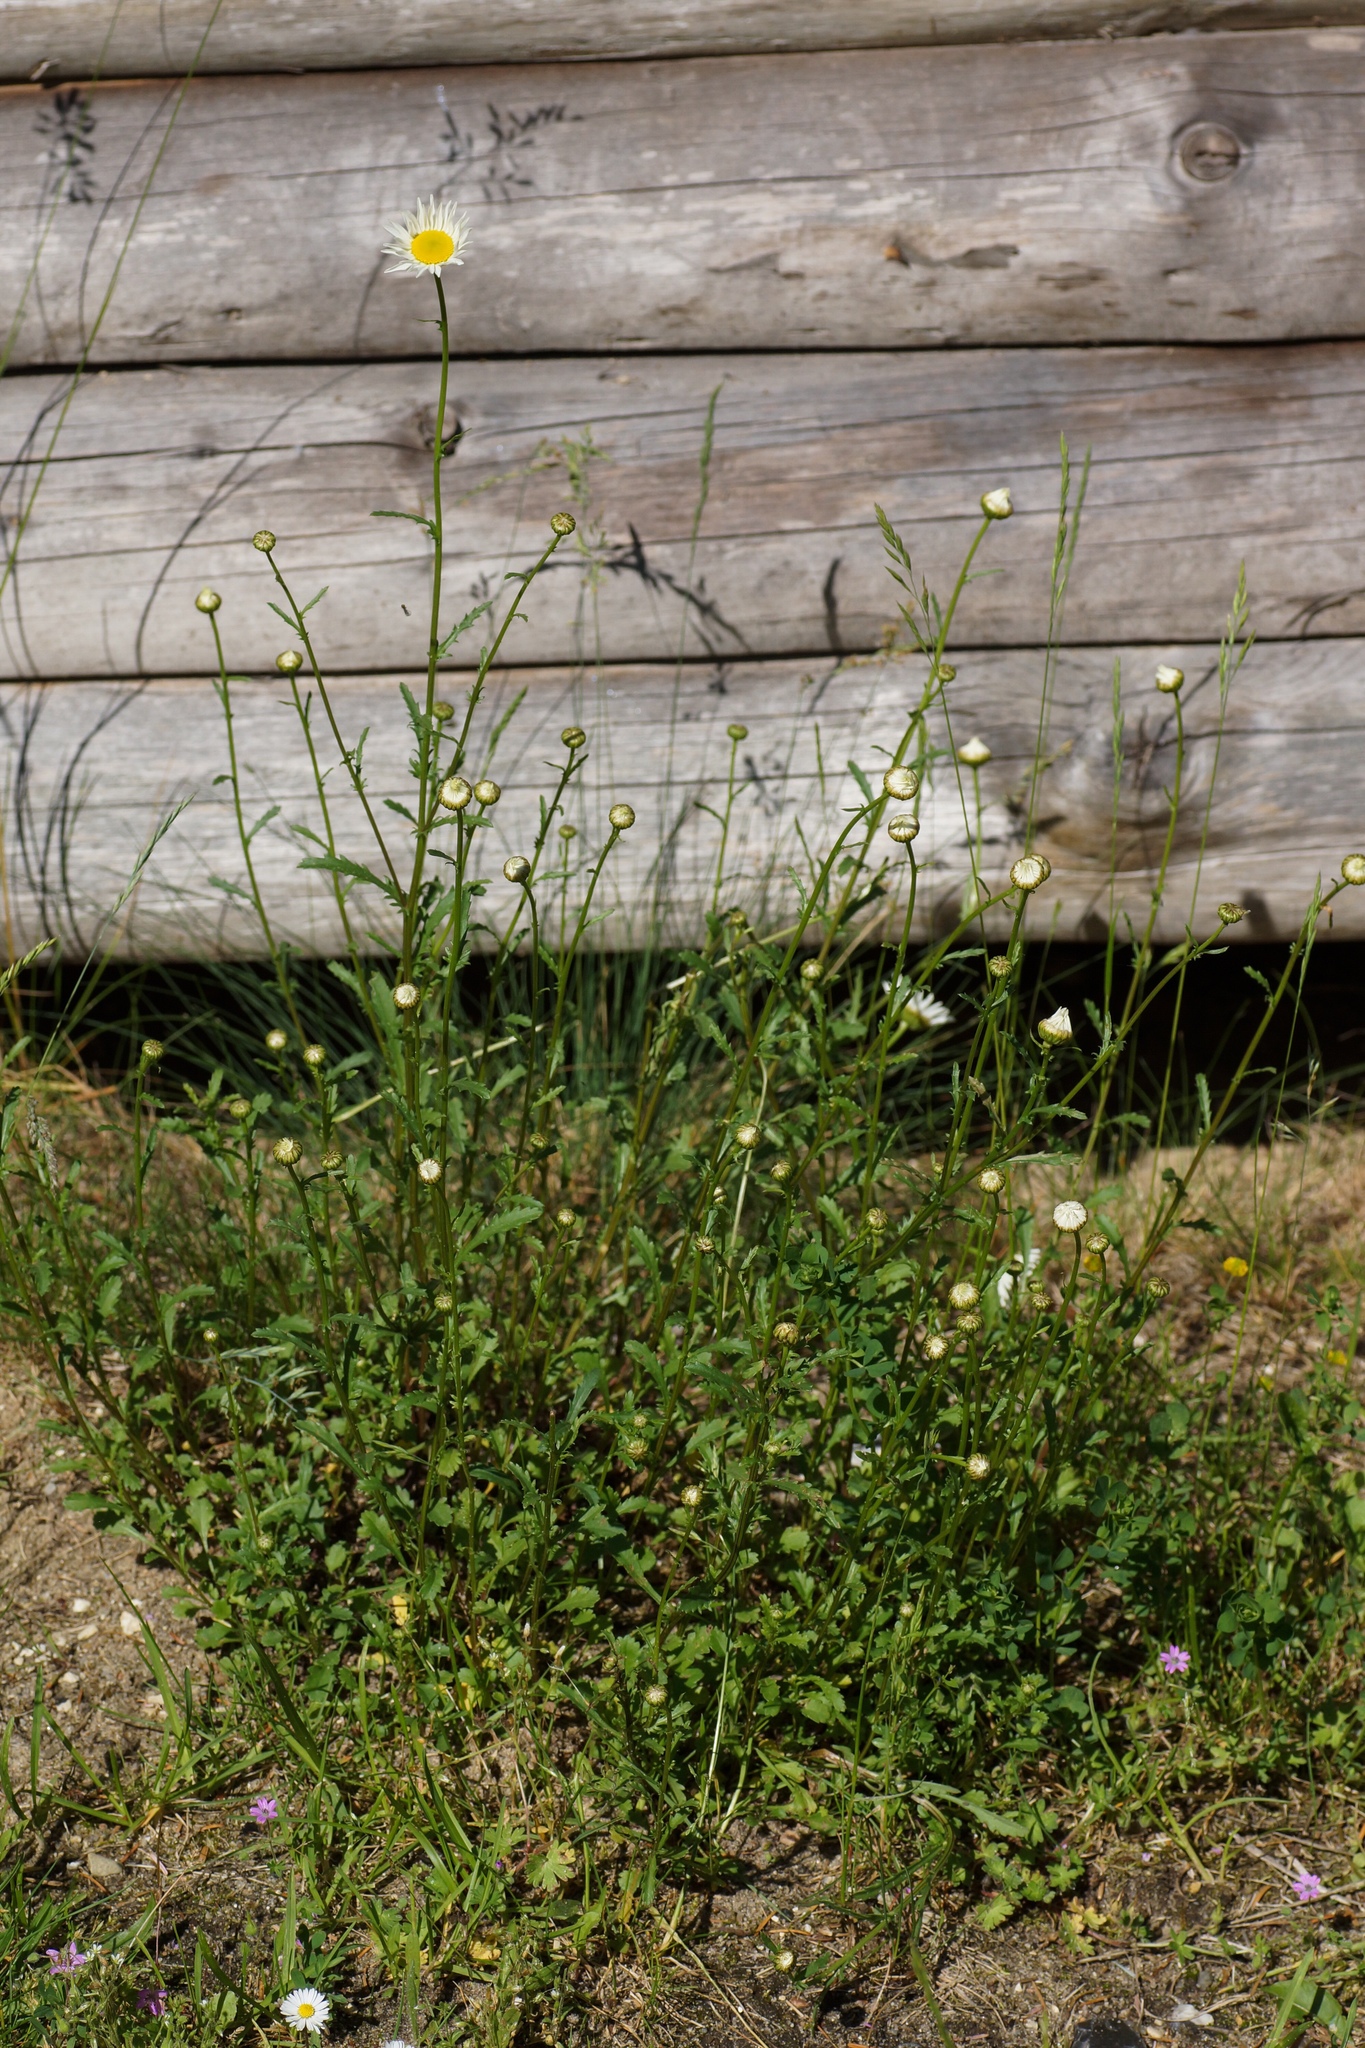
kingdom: Plantae
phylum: Tracheophyta
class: Magnoliopsida
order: Asterales
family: Asteraceae
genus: Leucanthemum
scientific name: Leucanthemum vulgare
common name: Oxeye daisy
